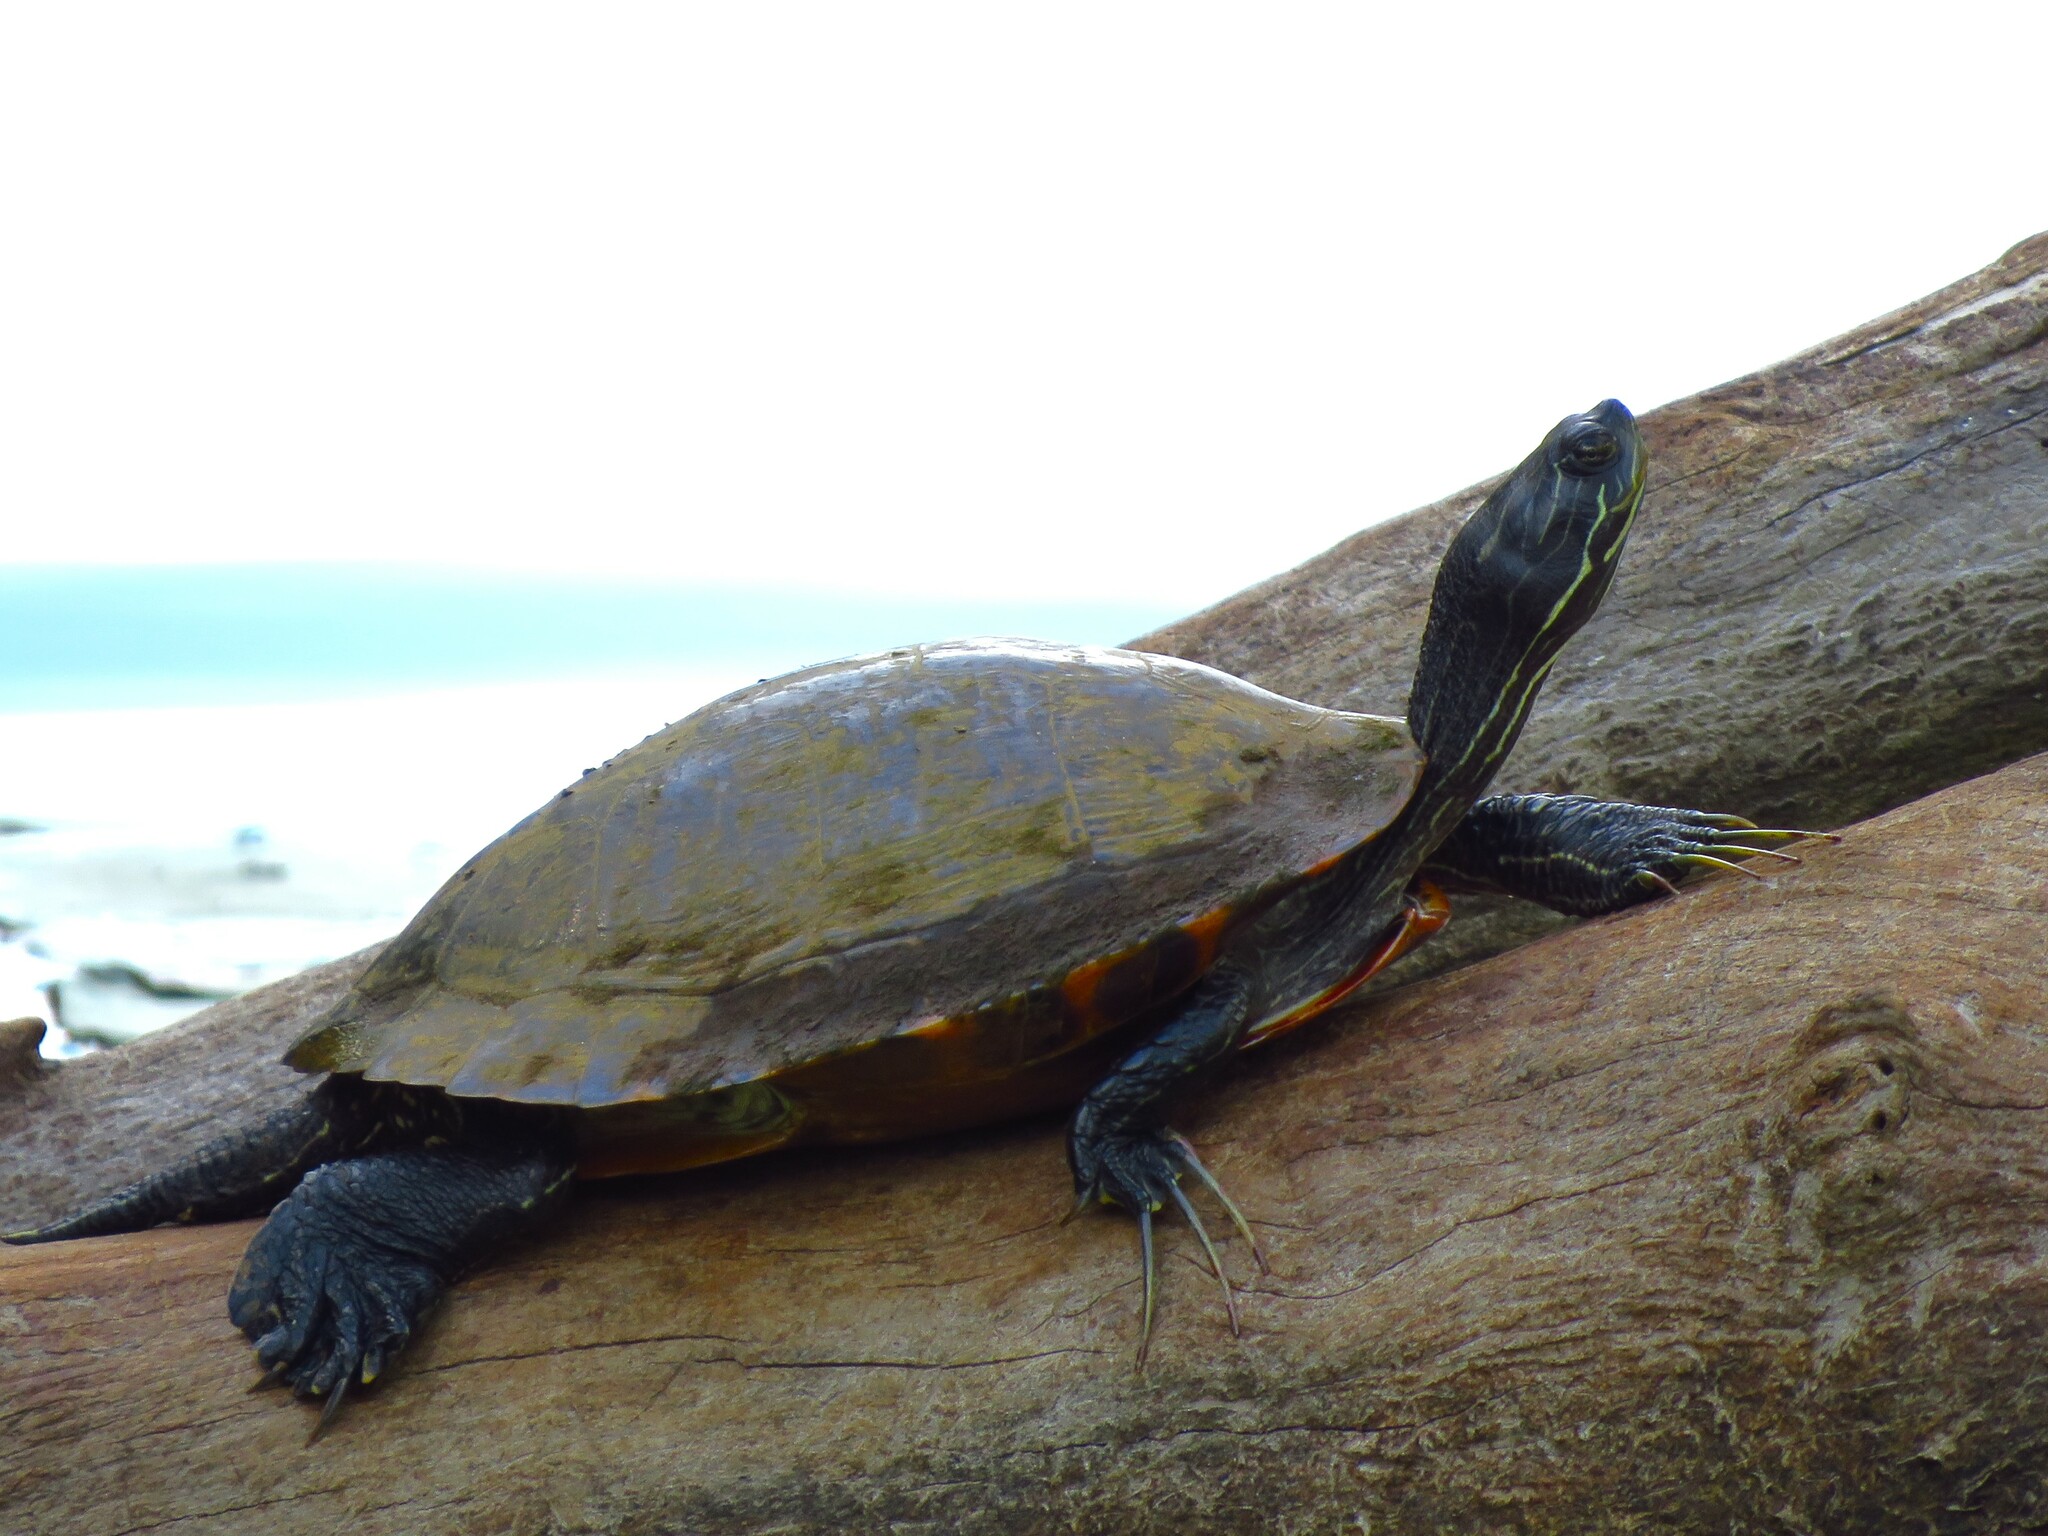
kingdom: Animalia
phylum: Chordata
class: Testudines
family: Emydidae
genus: Pseudemys
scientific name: Pseudemys concinna
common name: Eastern river cooter
